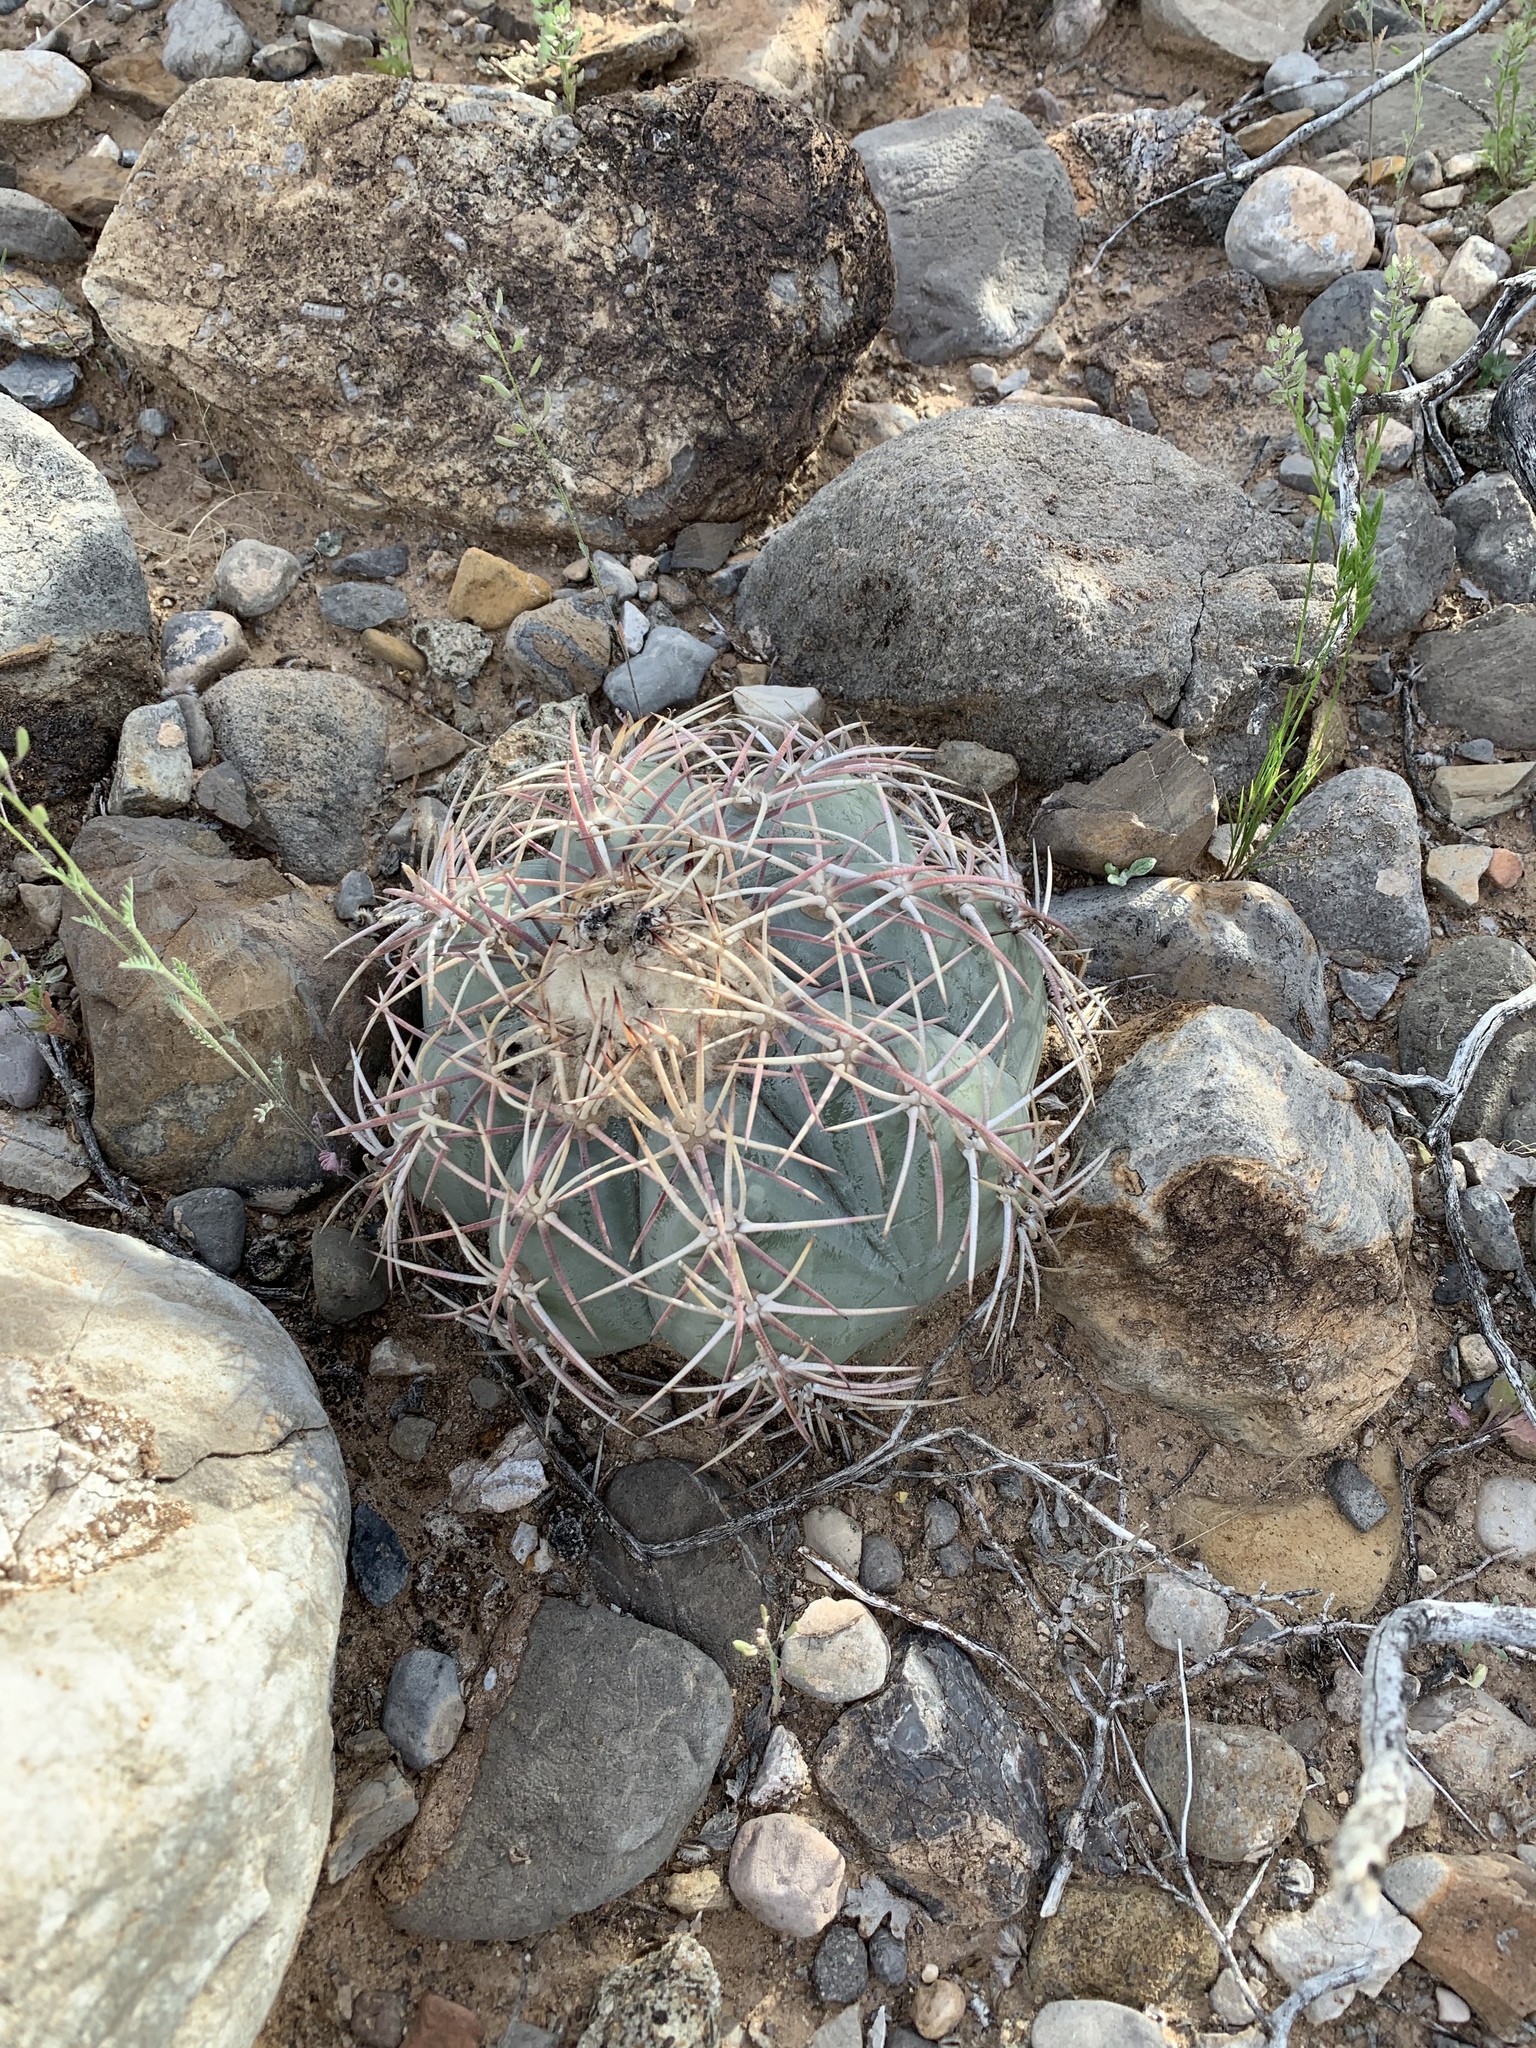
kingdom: Plantae
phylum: Tracheophyta
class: Magnoliopsida
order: Caryophyllales
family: Cactaceae
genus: Echinocactus
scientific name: Echinocactus horizonthalonius
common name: Devilshead
